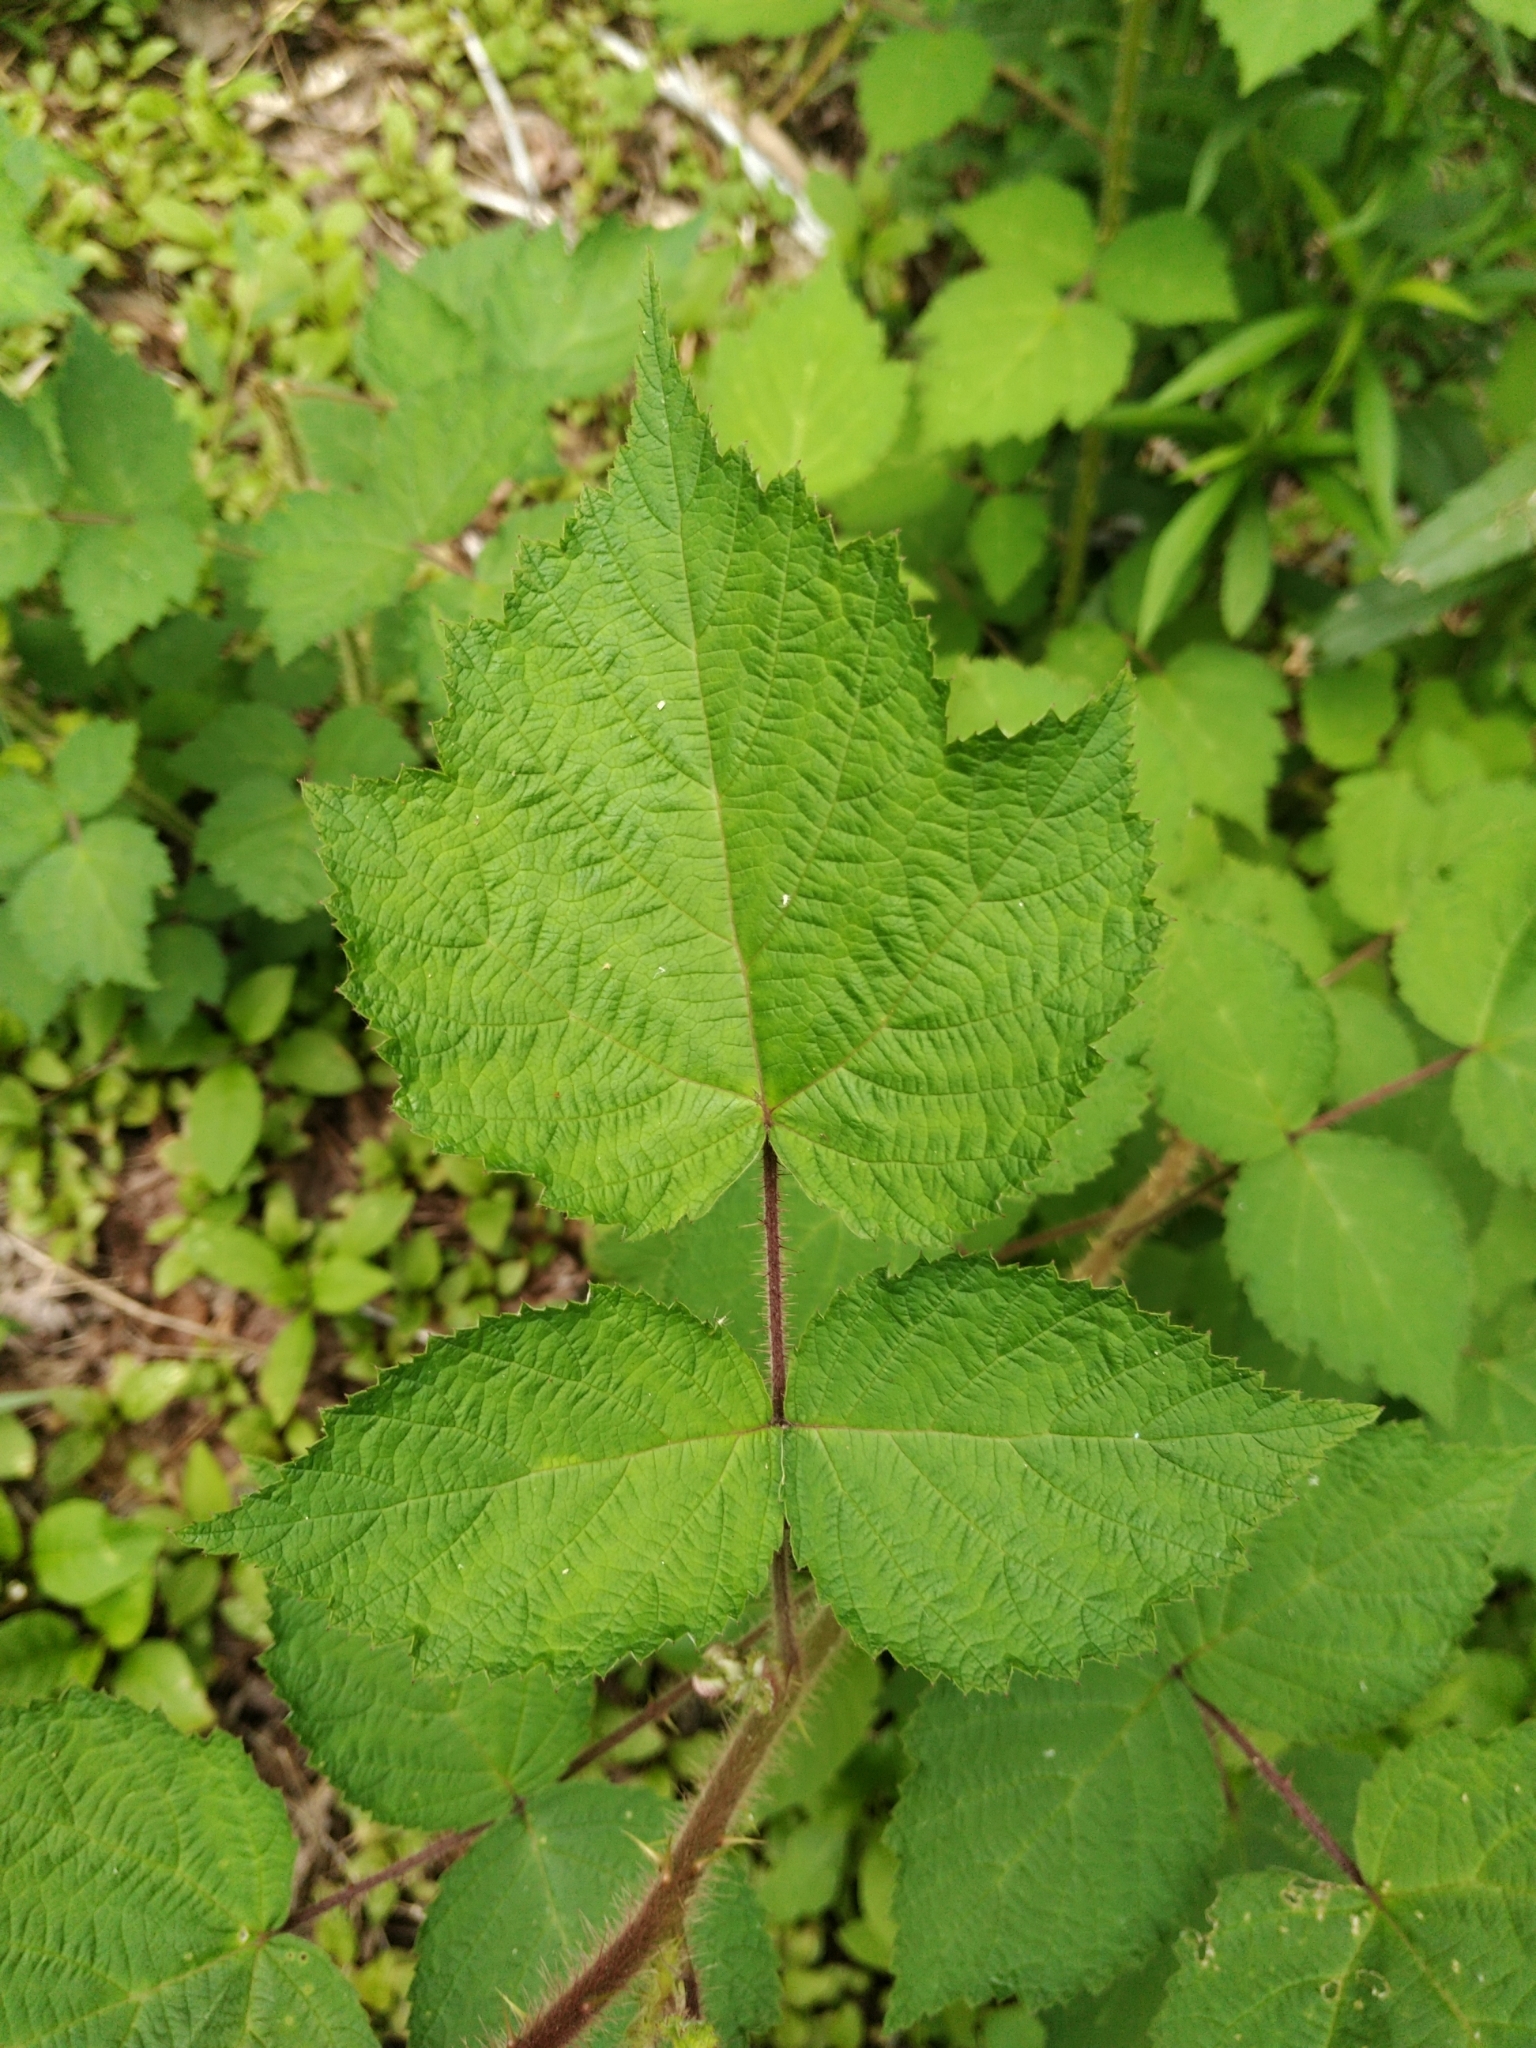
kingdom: Plantae
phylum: Tracheophyta
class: Magnoliopsida
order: Rosales
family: Rosaceae
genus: Rubus
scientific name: Rubus phoenicolasius
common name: Japanese wineberry
